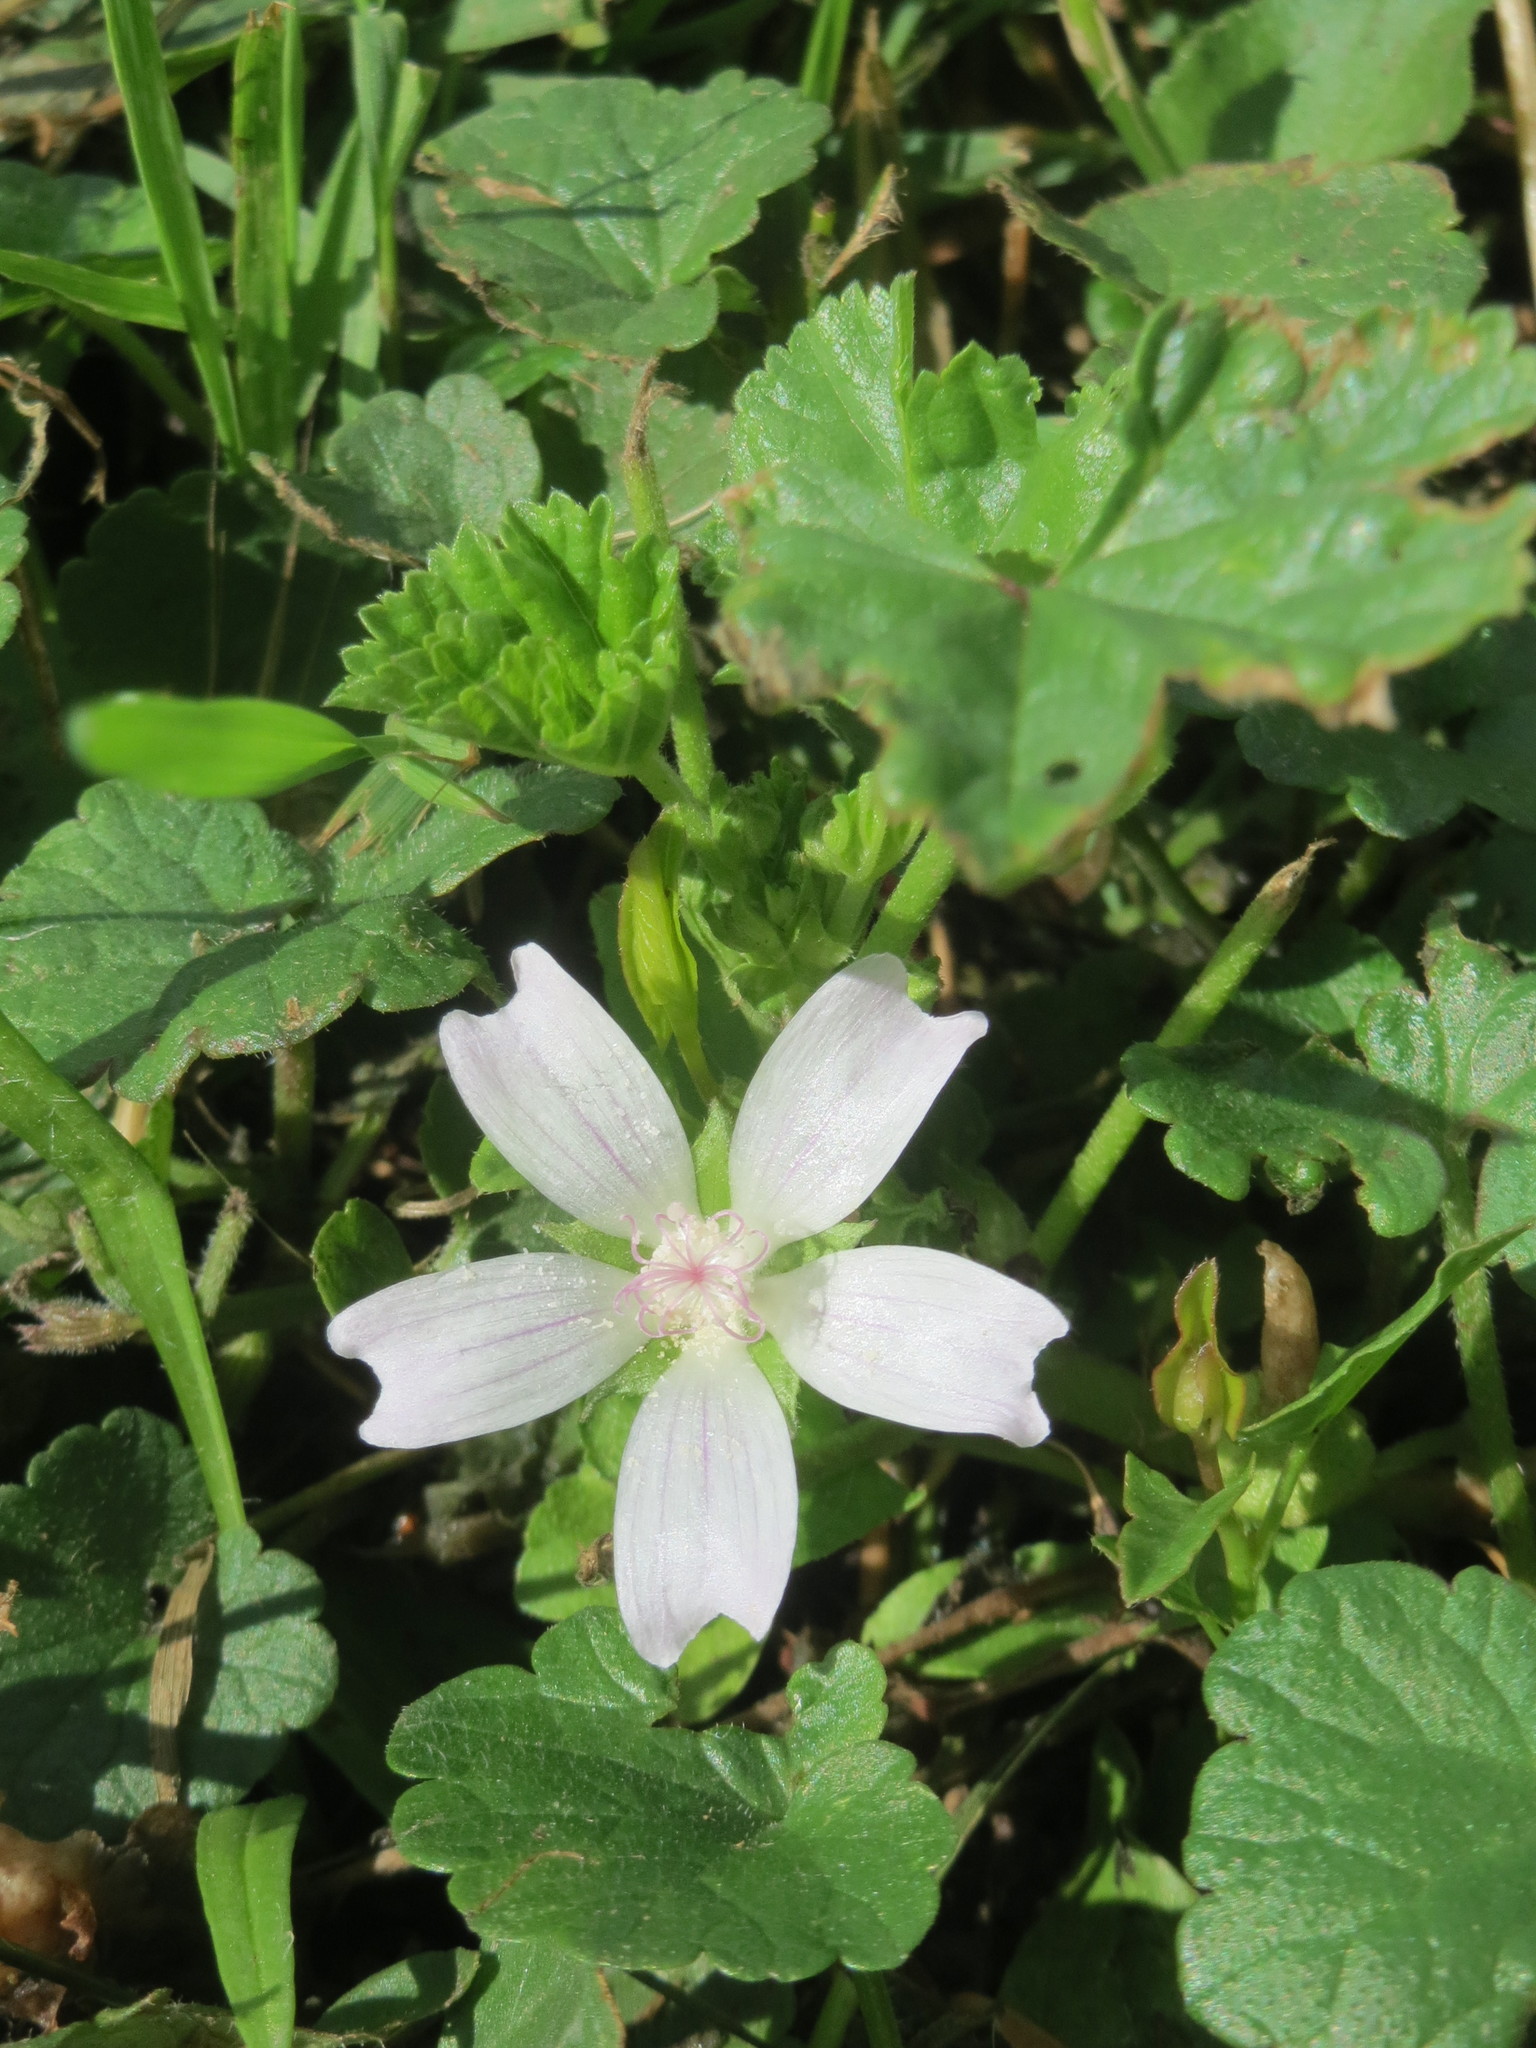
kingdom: Plantae
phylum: Tracheophyta
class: Magnoliopsida
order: Malvales
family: Malvaceae
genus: Malva
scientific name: Malva neglecta
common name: Common mallow
